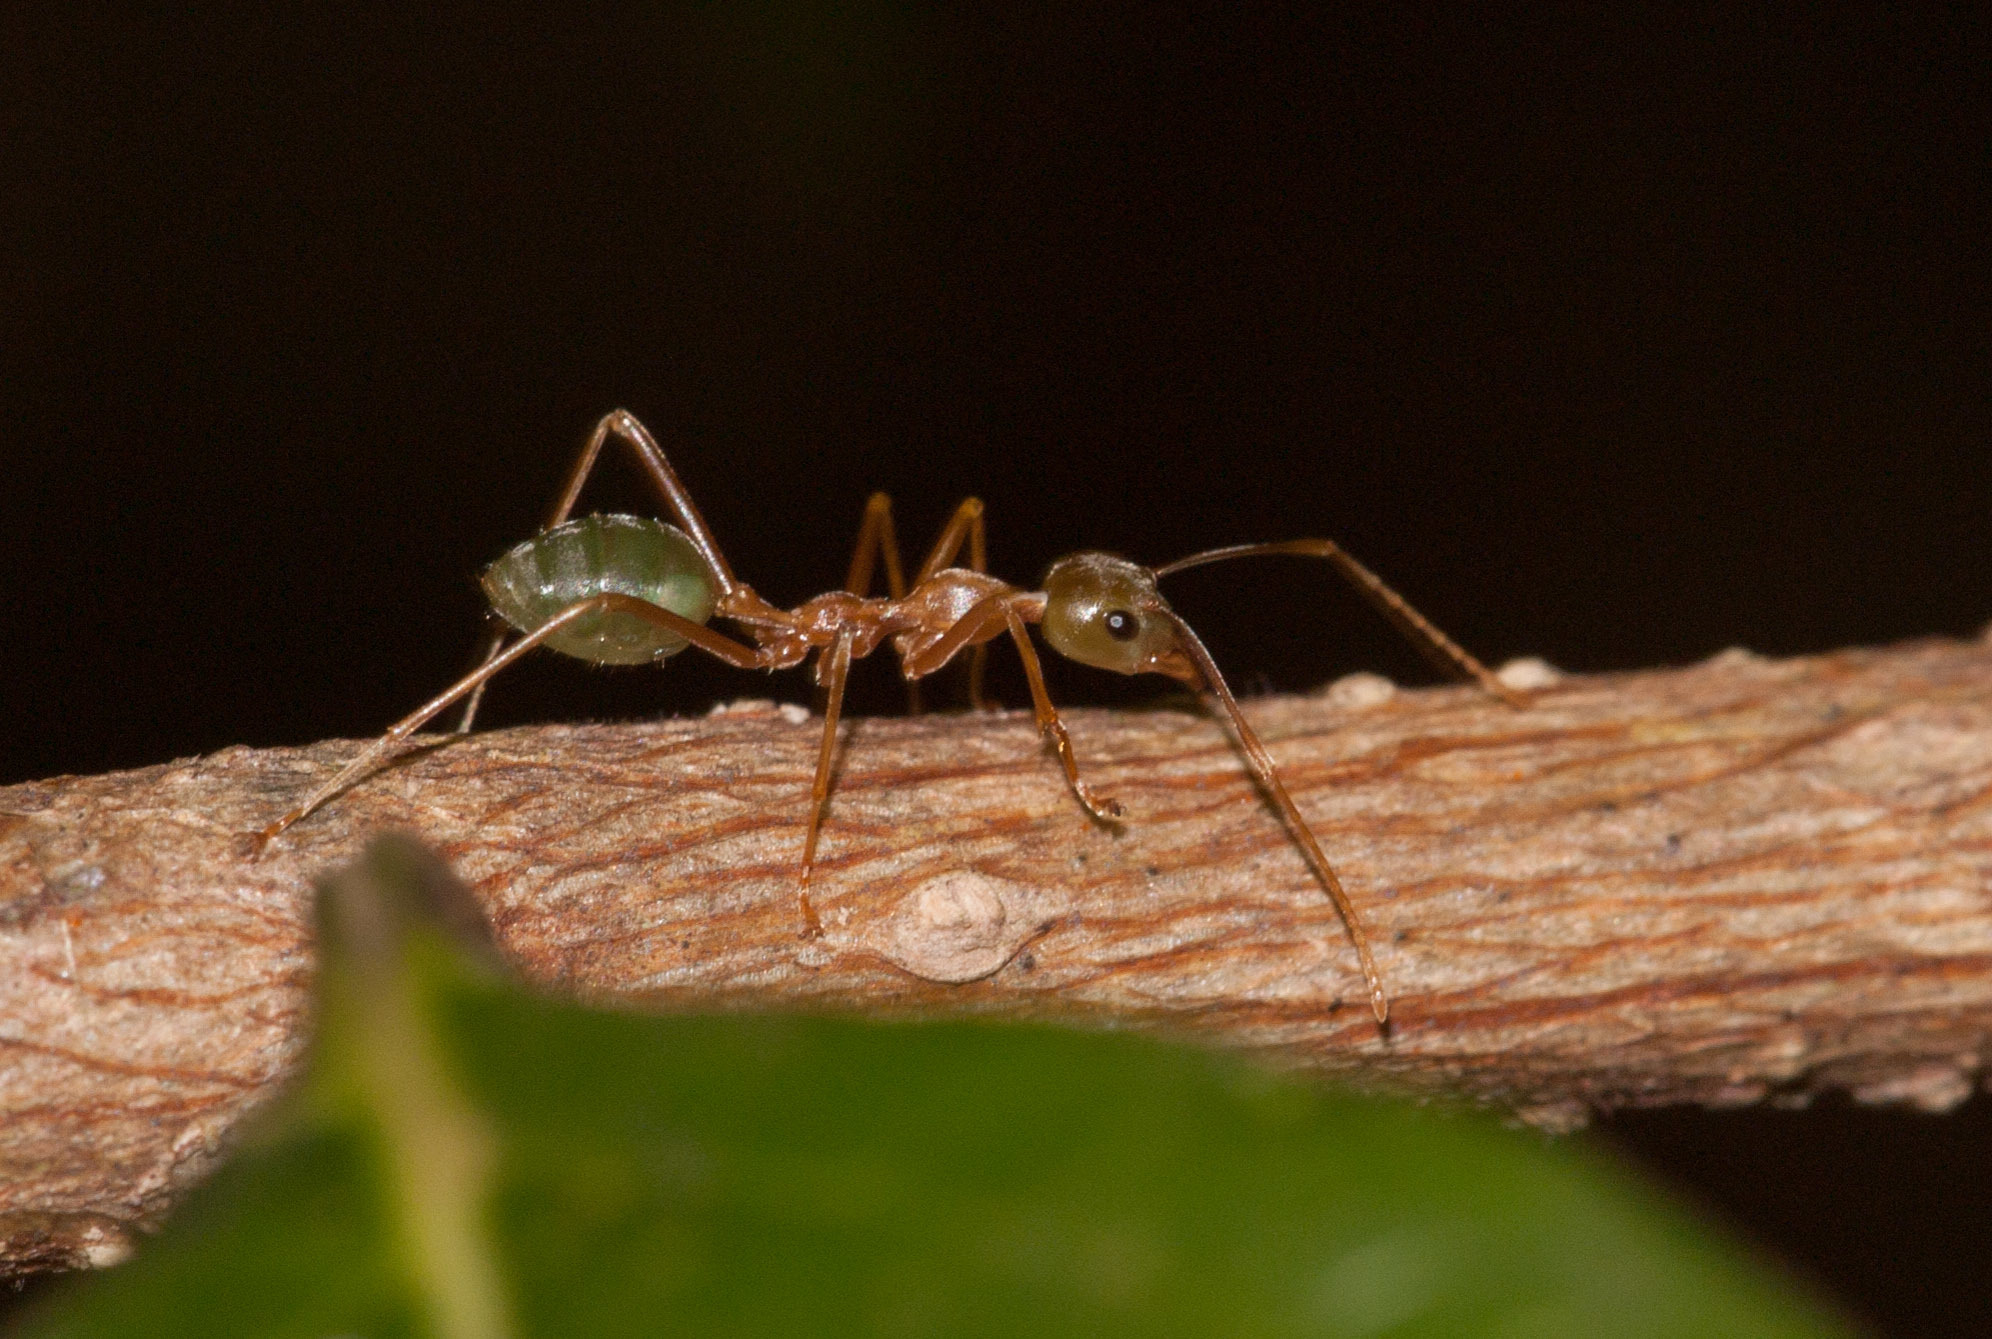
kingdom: Animalia
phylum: Arthropoda
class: Insecta
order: Hymenoptera
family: Formicidae
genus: Oecophylla
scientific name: Oecophylla smaragdina
